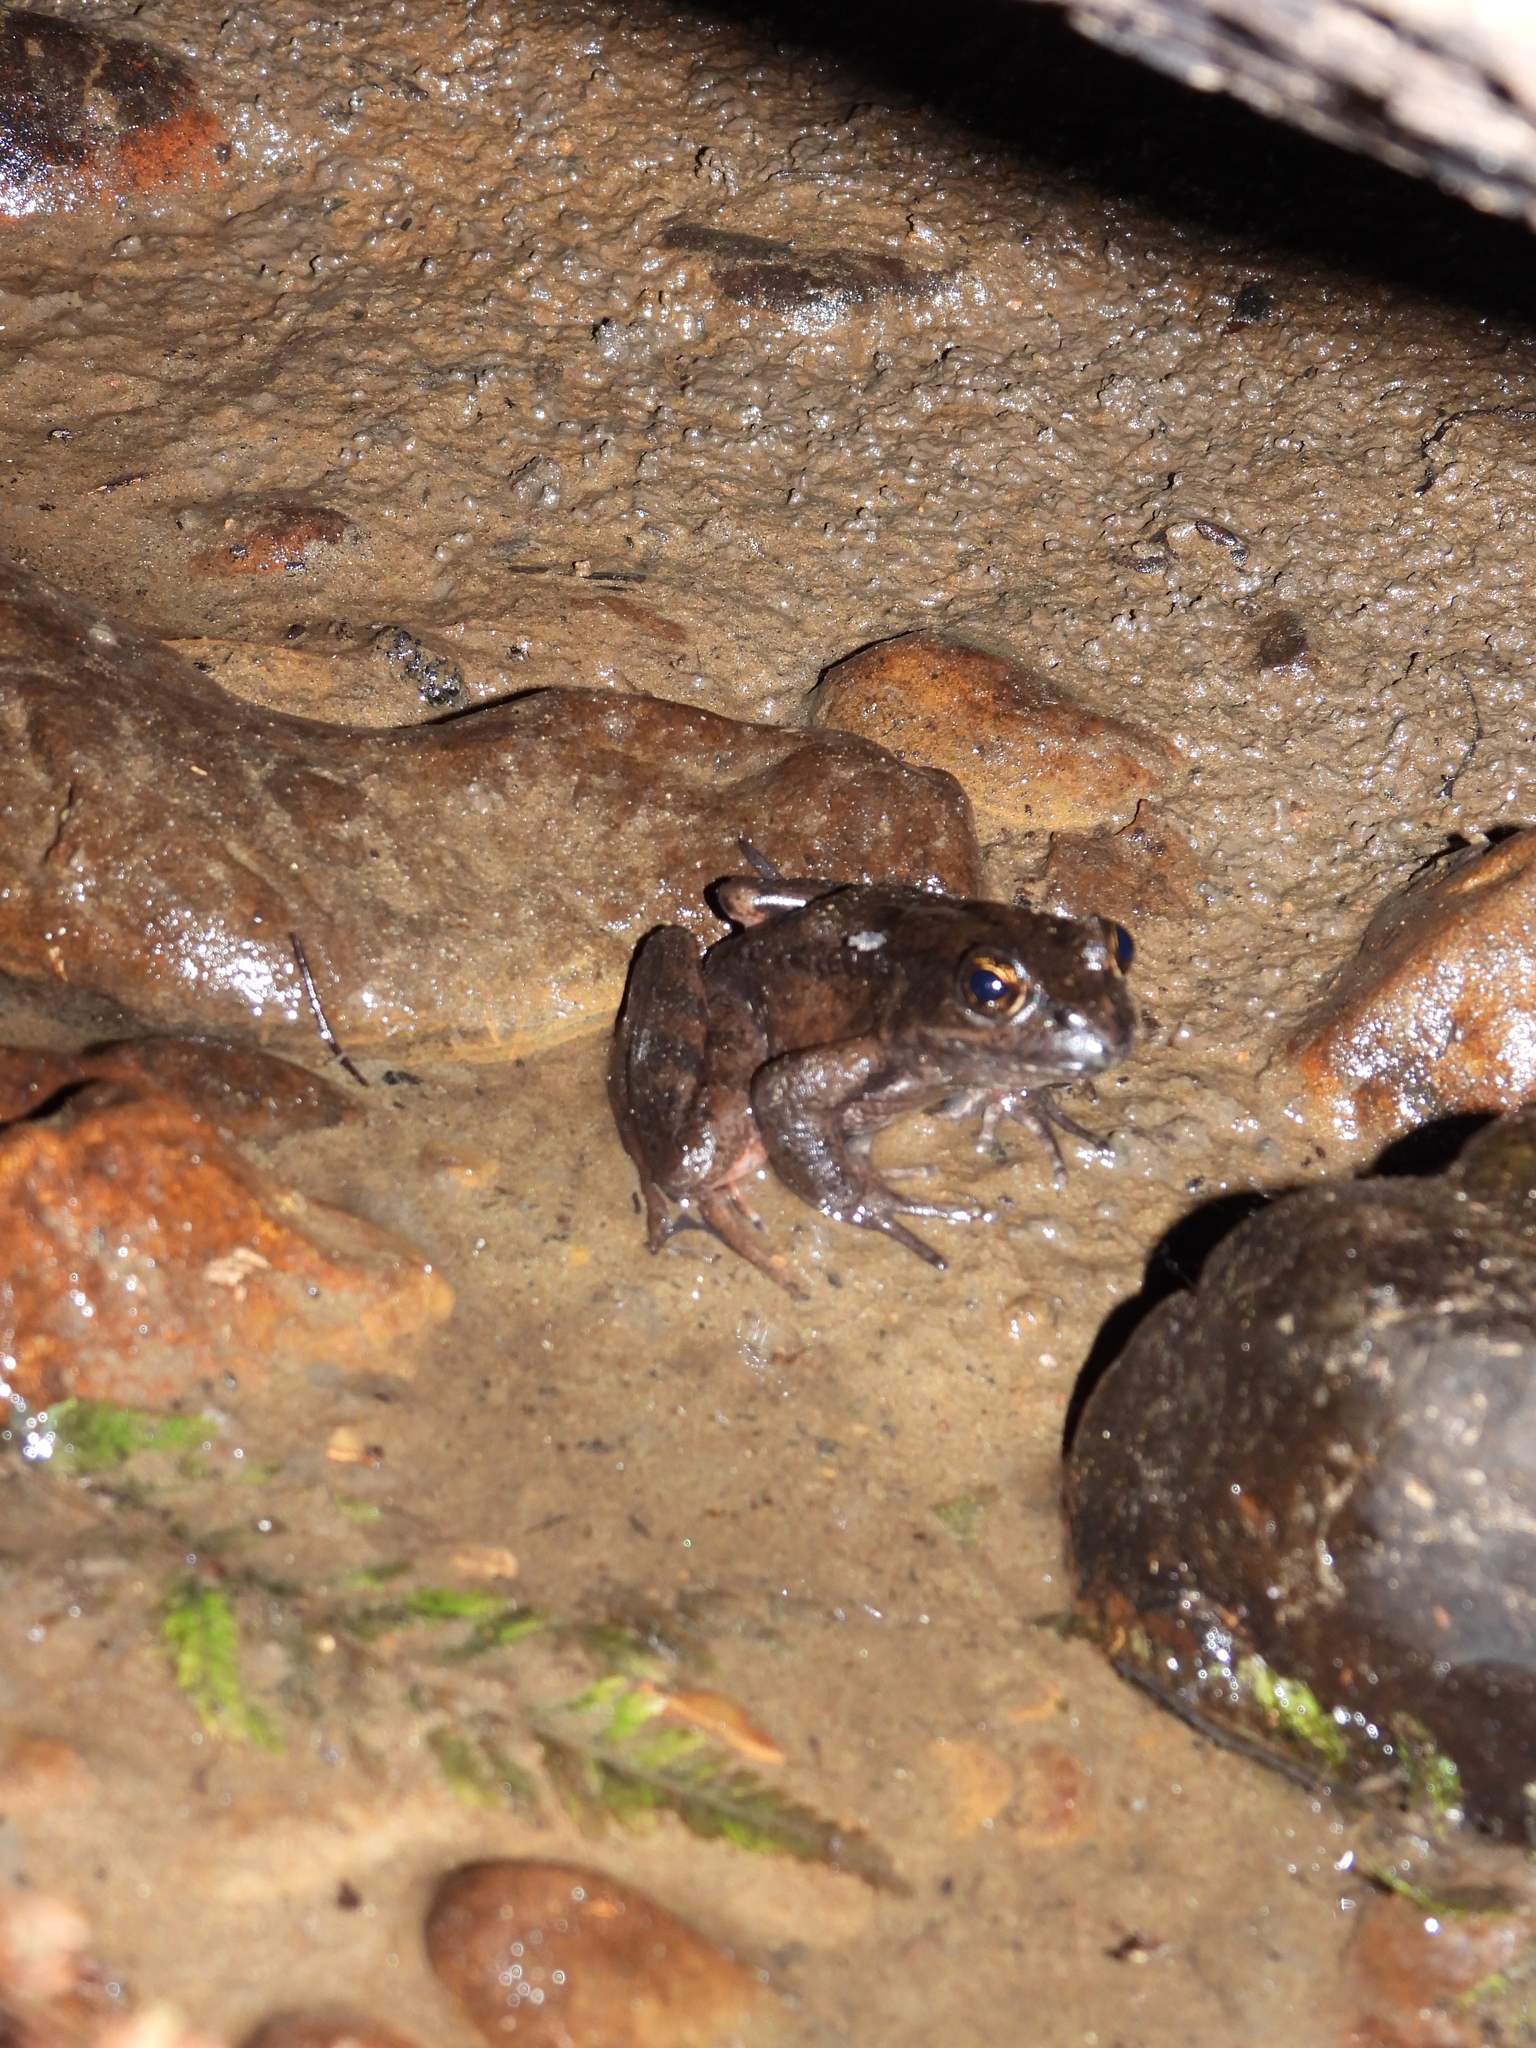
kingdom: Animalia
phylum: Chordata
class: Amphibia
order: Anura
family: Ranidae
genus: Rana
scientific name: Rana aurora
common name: Red-legged frog
